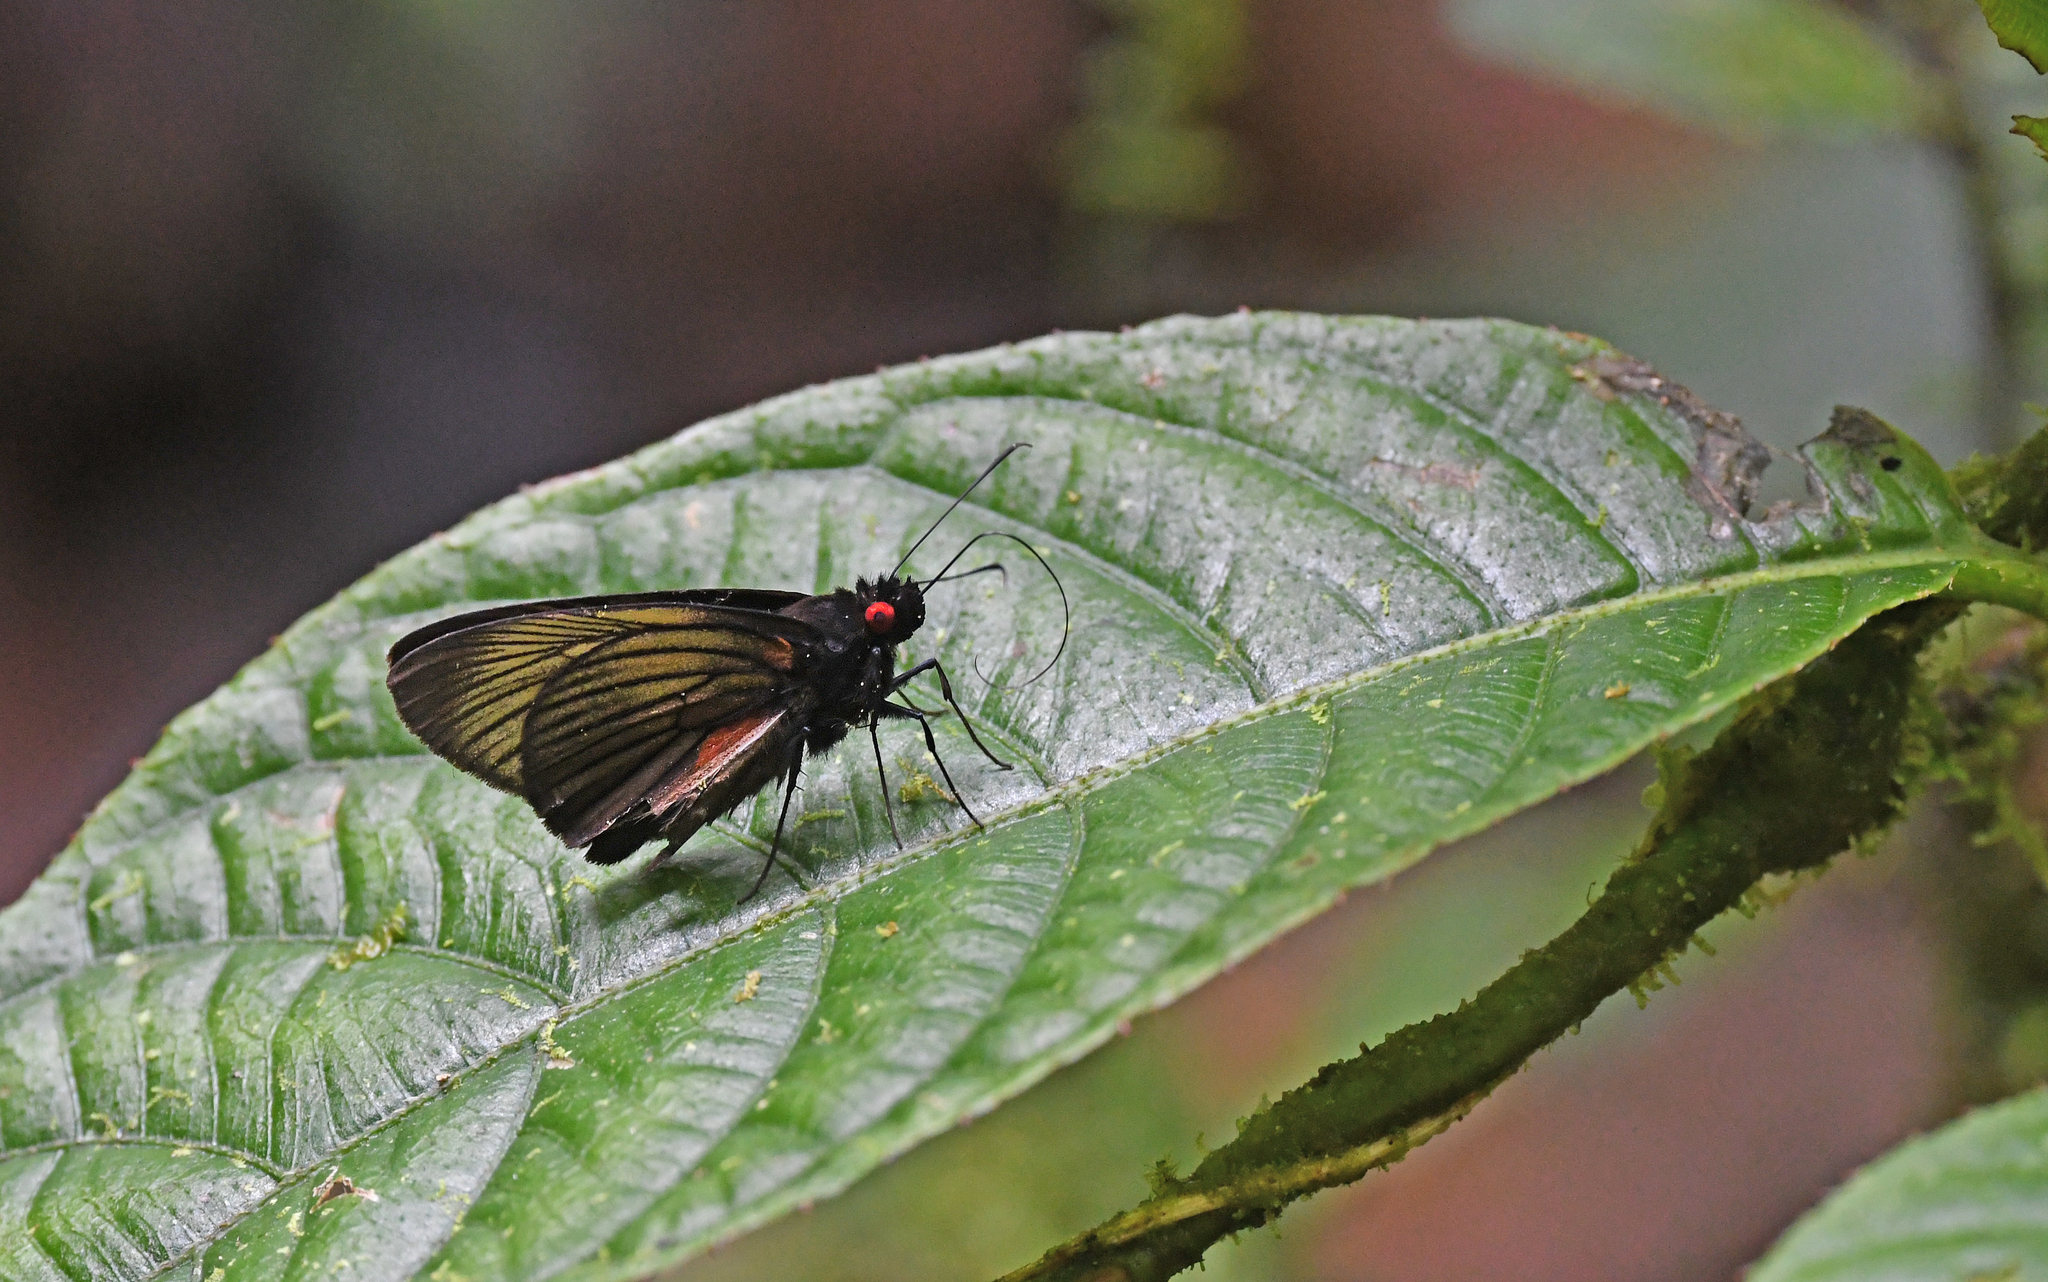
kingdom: Animalia
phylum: Arthropoda
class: Insecta
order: Lepidoptera
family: Hesperiidae
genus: Dion
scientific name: Dion carmenta
